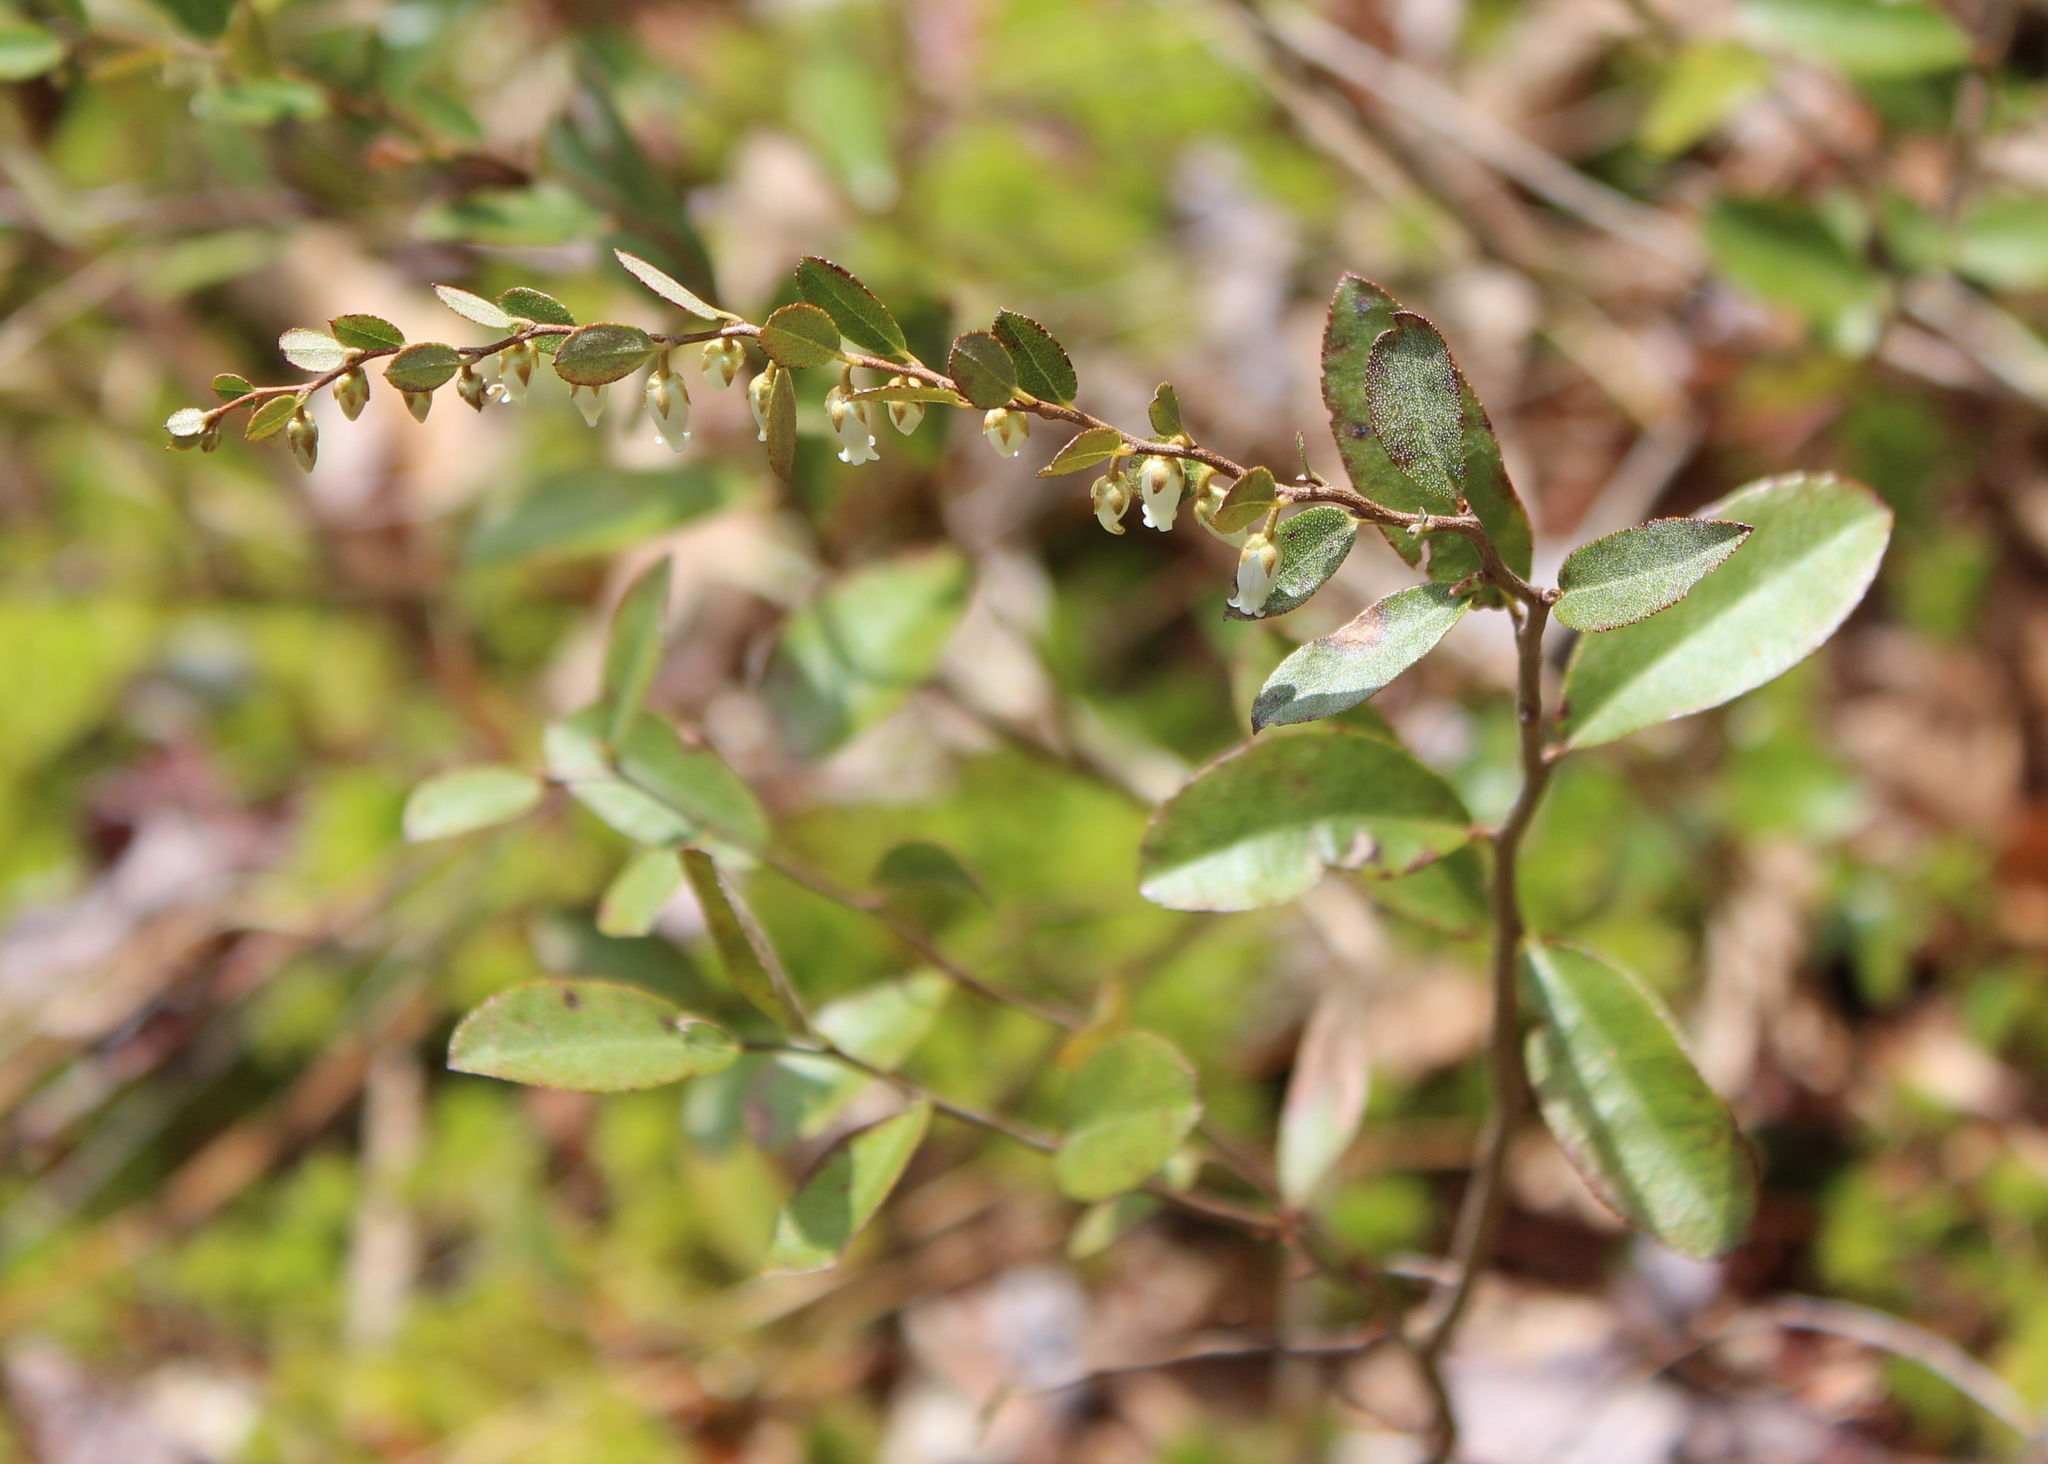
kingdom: Plantae
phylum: Tracheophyta
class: Magnoliopsida
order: Ericales
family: Ericaceae
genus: Chamaedaphne
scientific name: Chamaedaphne calyculata
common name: Leatherleaf
